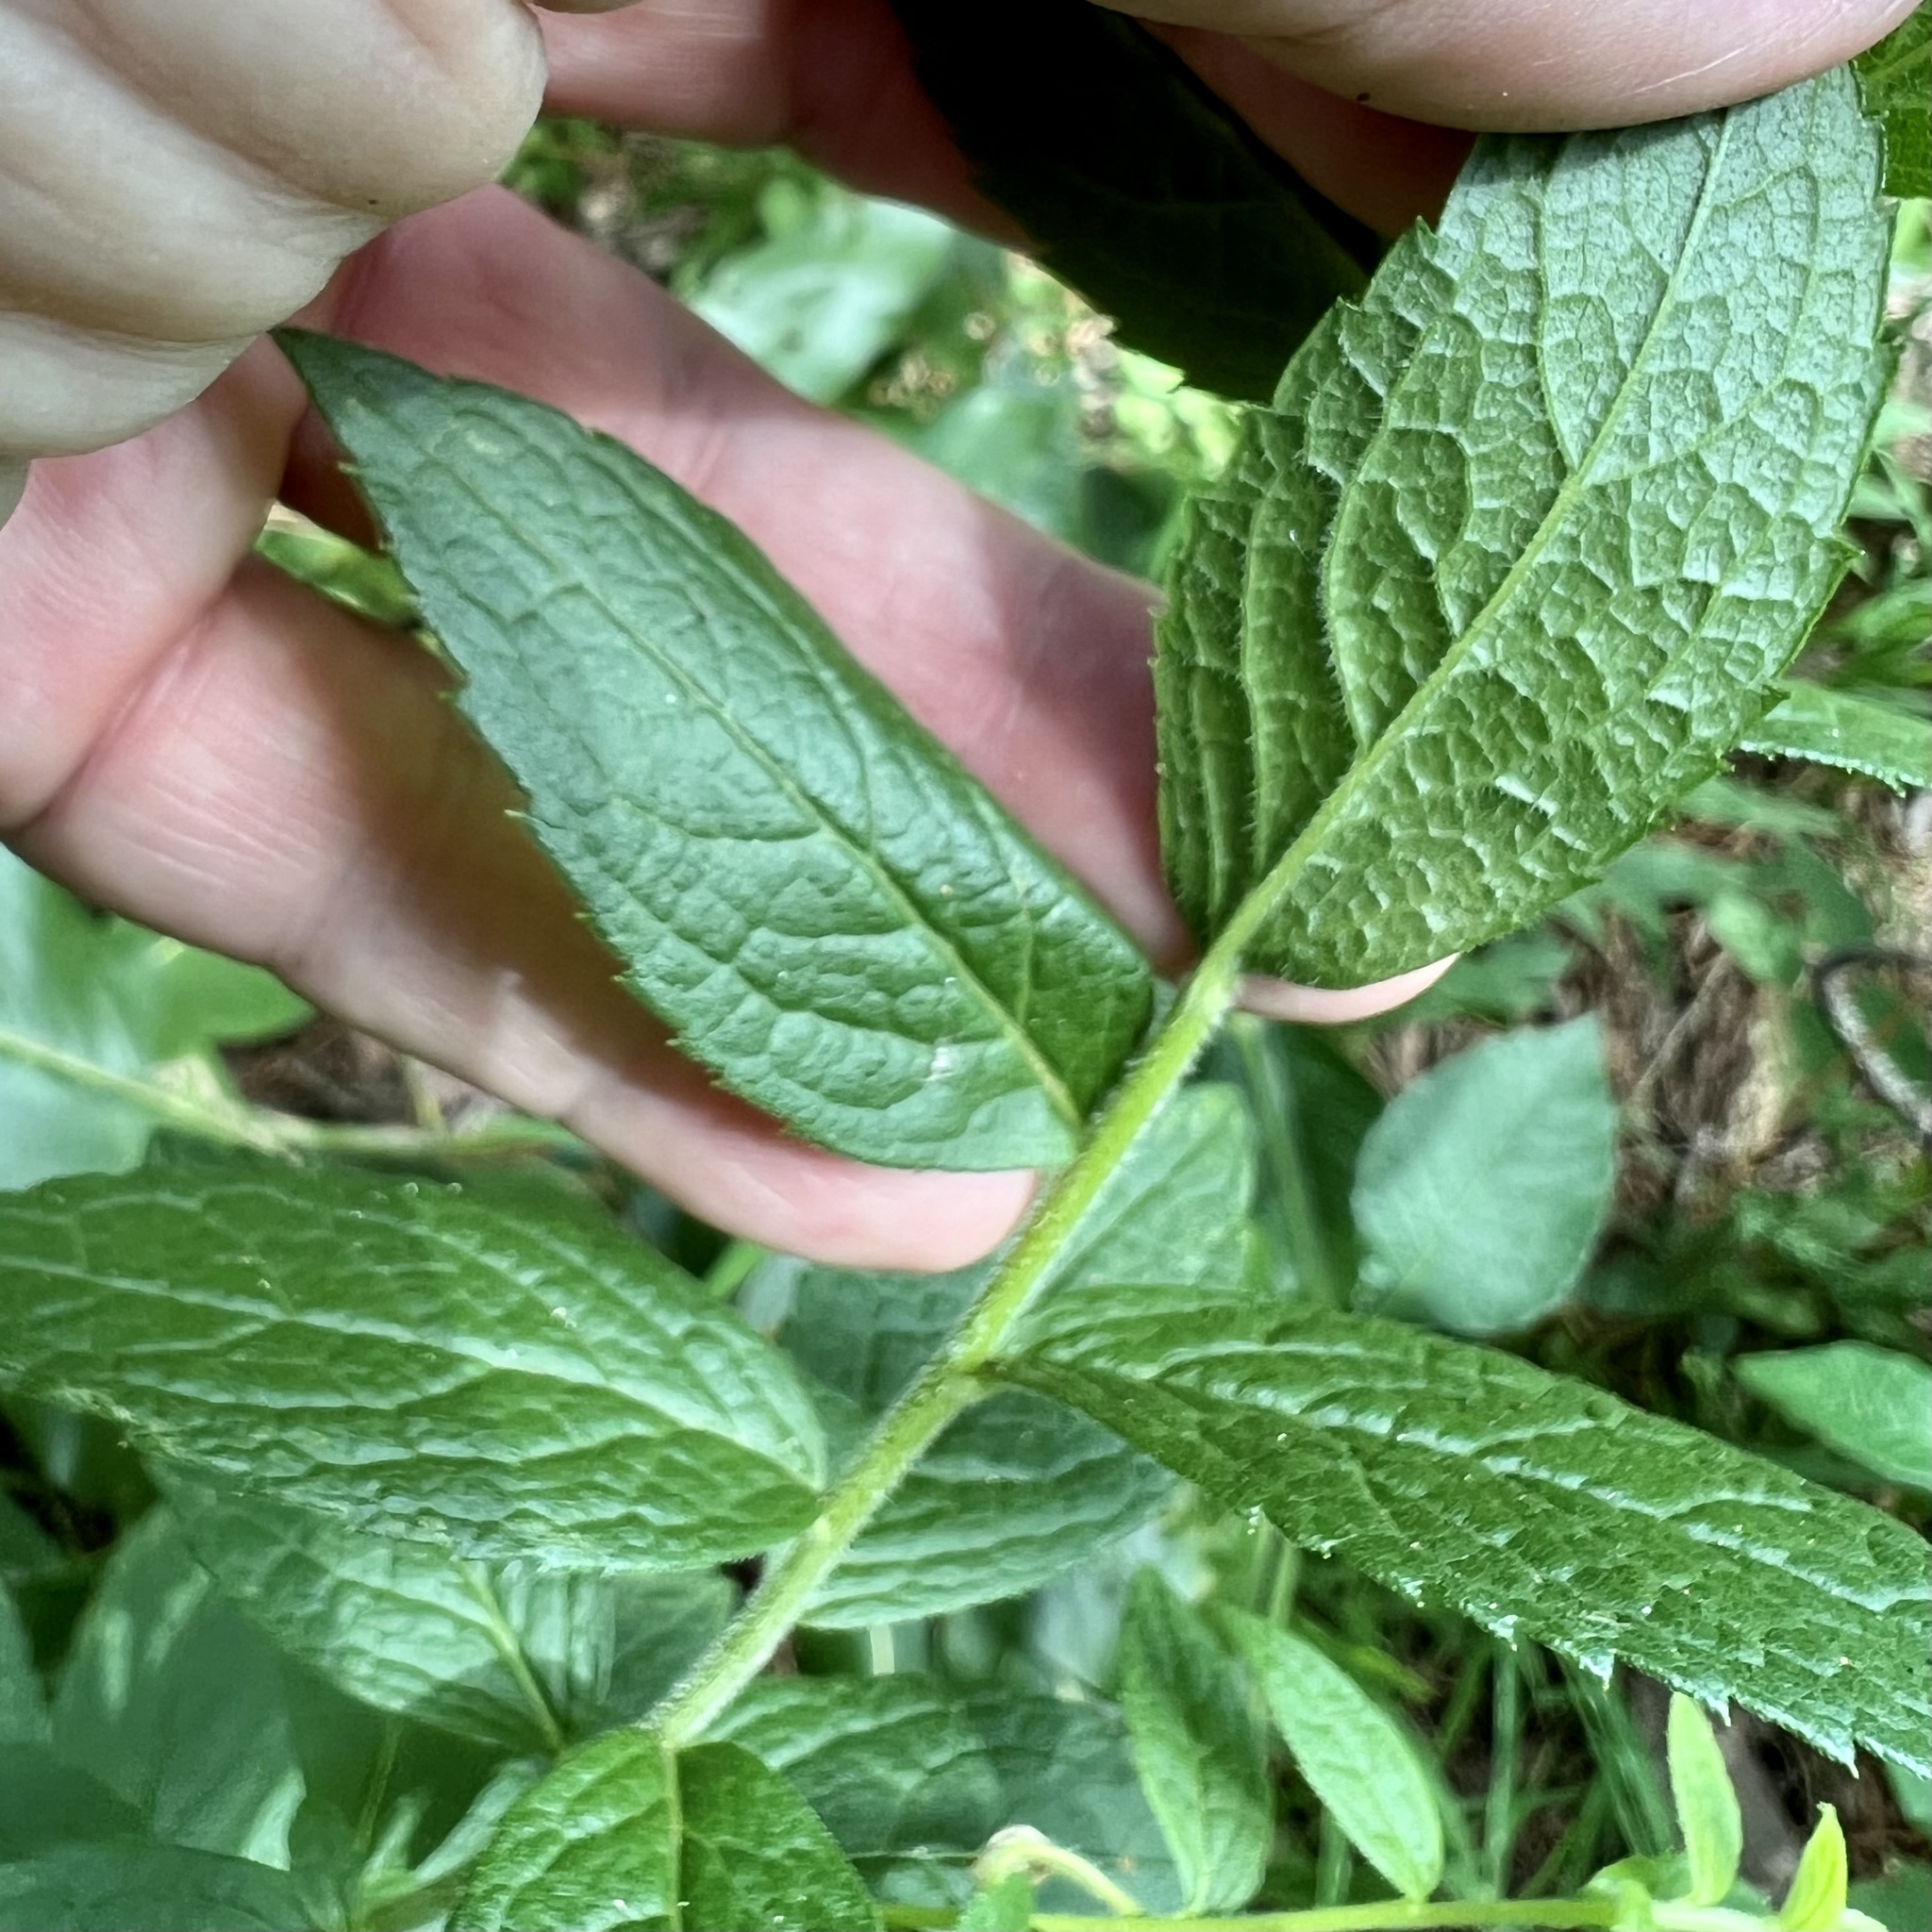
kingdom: Plantae
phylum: Tracheophyta
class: Magnoliopsida
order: Asterales
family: Asteraceae
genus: Solidago
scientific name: Solidago rugosa
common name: Rough-stemmed goldenrod
